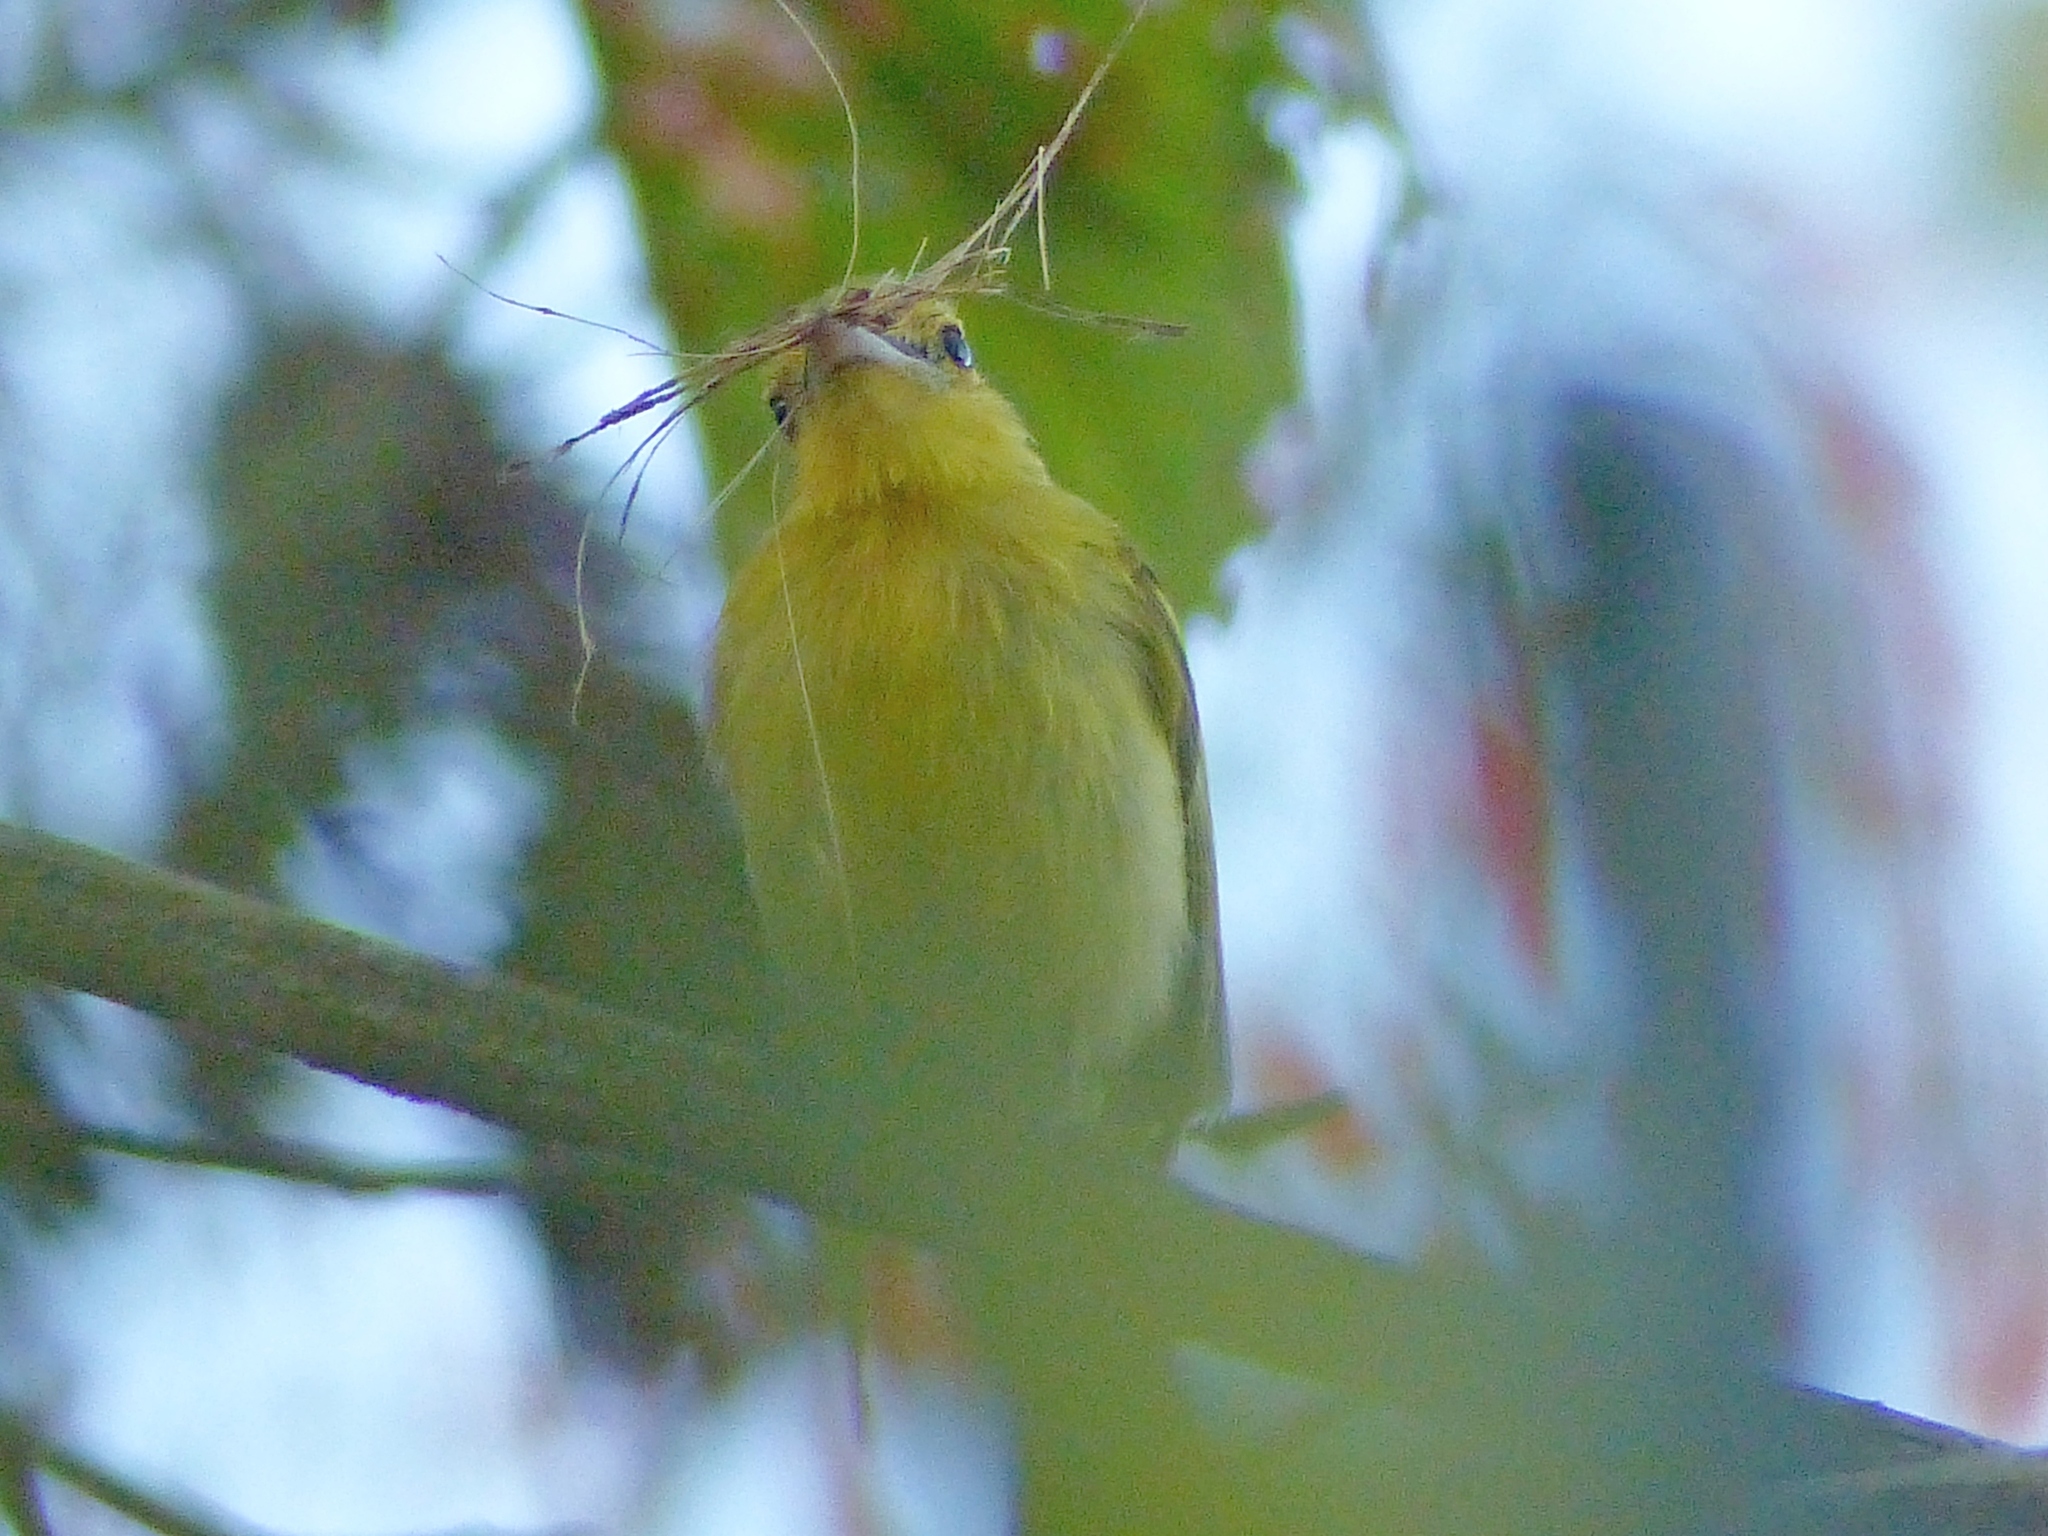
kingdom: Animalia
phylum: Chordata
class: Aves
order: Passeriformes
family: Tyrannidae
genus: Tolmomyias
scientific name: Tolmomyias flaviventris
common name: Ochre-lored flatbill
